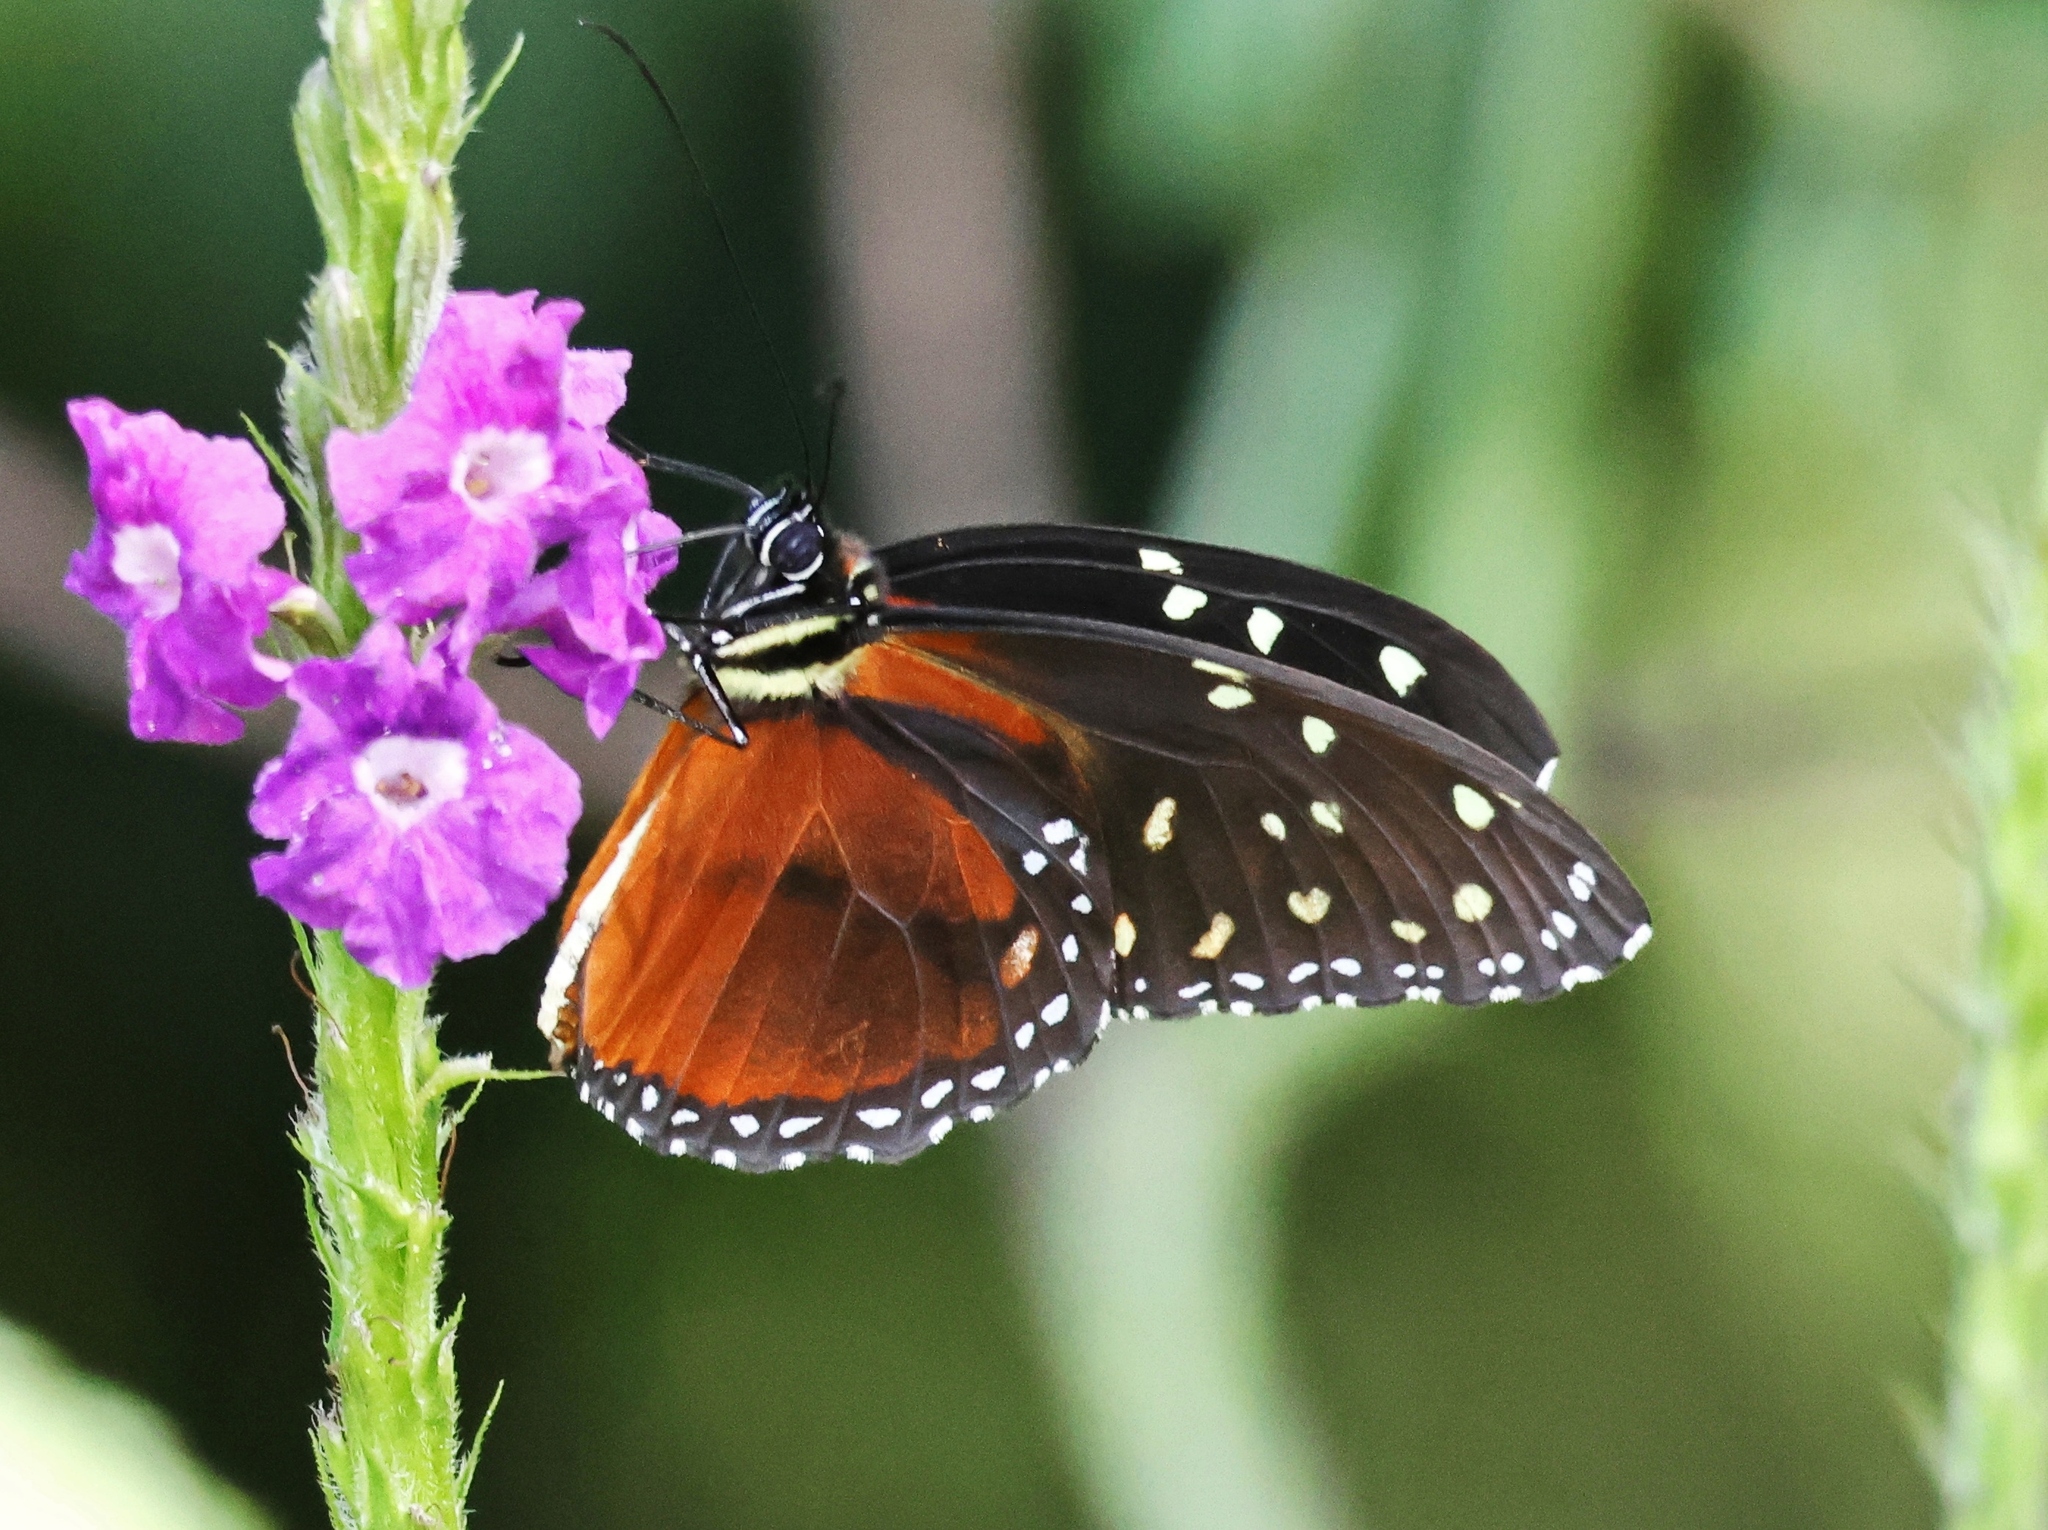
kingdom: Animalia
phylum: Arthropoda
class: Insecta
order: Lepidoptera
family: Nymphalidae
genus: Tithorea
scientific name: Tithorea tarricina
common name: Cream-spotted tigerwing
